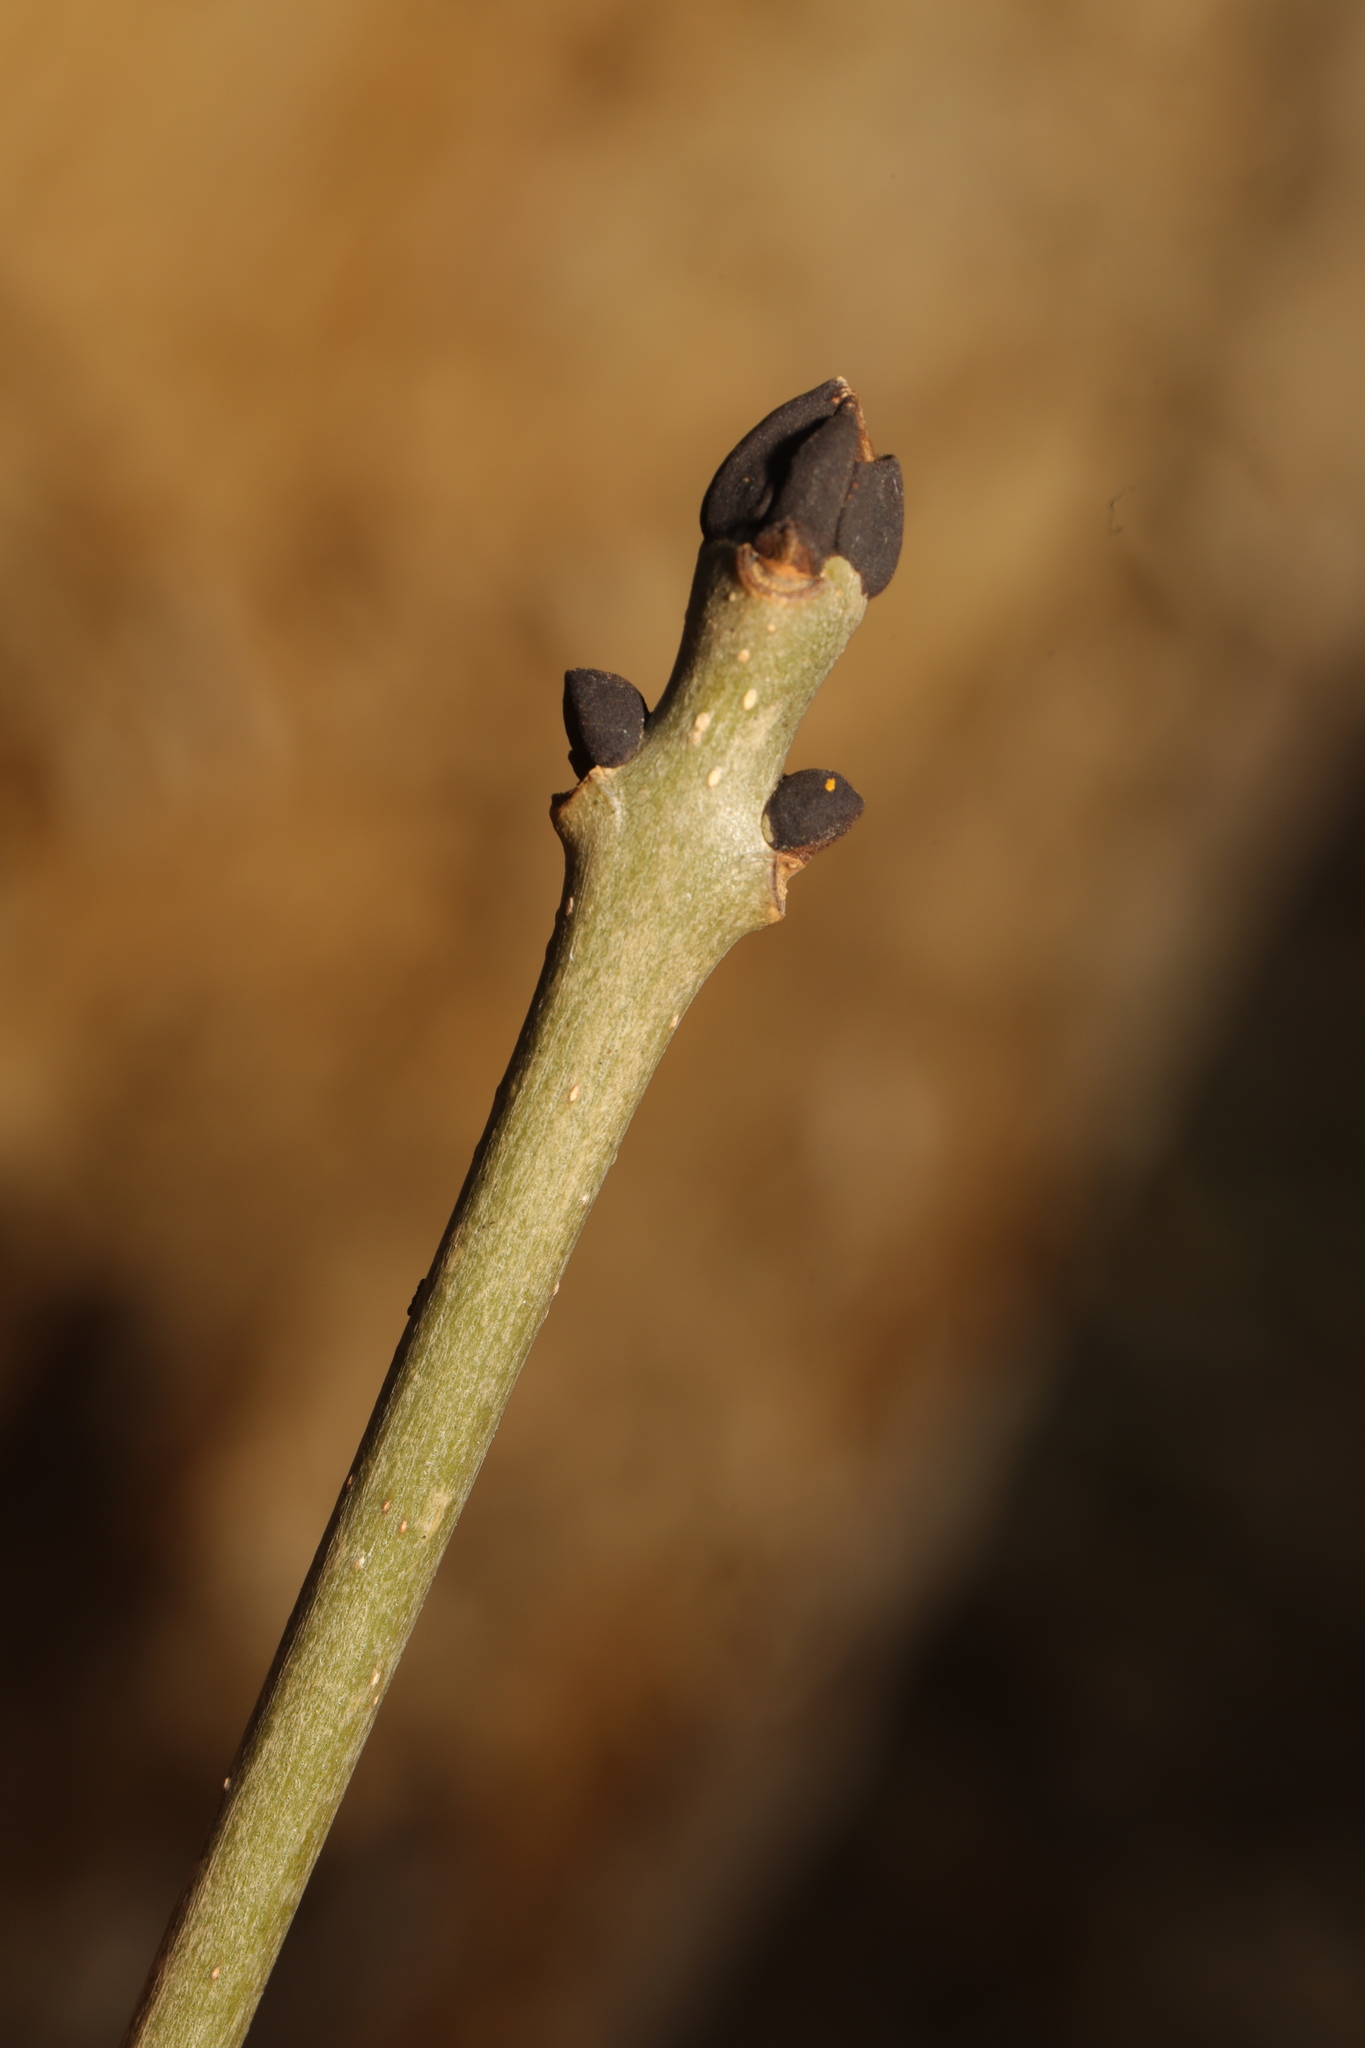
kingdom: Plantae
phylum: Tracheophyta
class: Magnoliopsida
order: Lamiales
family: Oleaceae
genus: Fraxinus
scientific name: Fraxinus excelsior
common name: European ash
